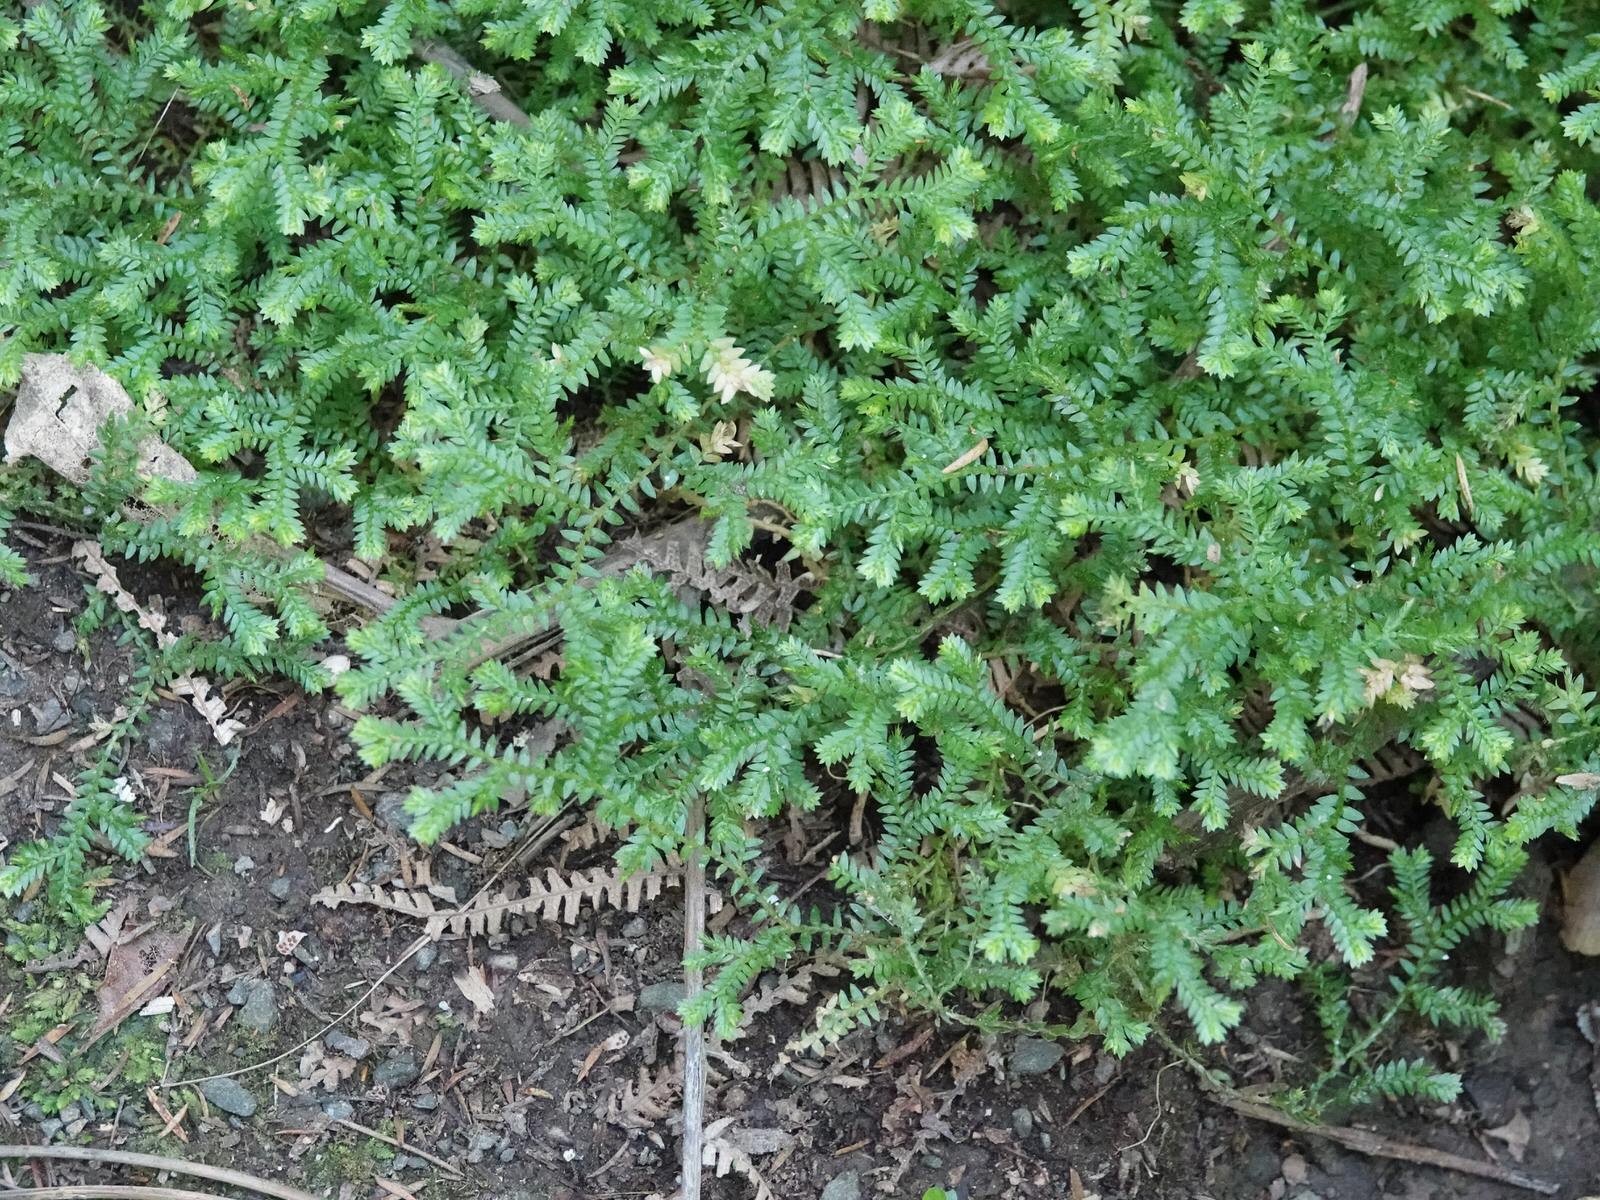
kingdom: Plantae
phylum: Tracheophyta
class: Lycopodiopsida
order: Selaginellales
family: Selaginellaceae
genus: Selaginella
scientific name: Selaginella kraussiana
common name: Krauss' spikemoss
